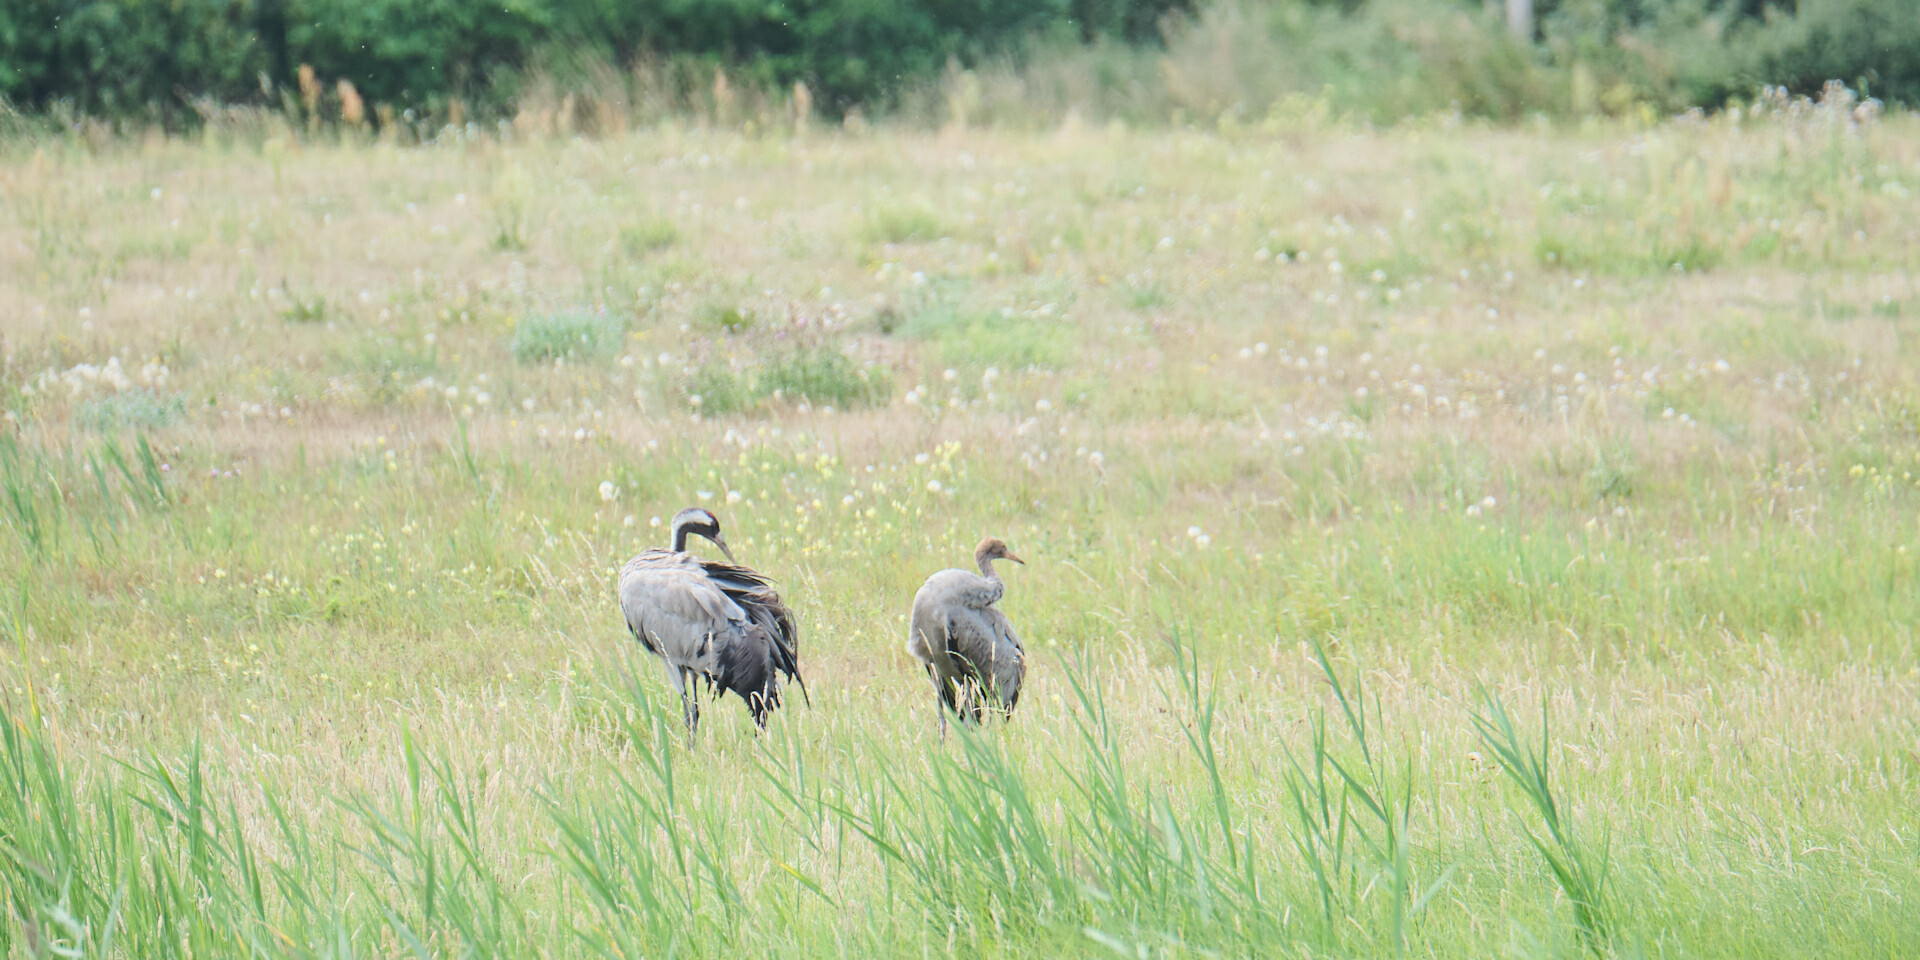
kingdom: Animalia
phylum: Chordata
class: Aves
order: Gruiformes
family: Gruidae
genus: Grus
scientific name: Grus grus
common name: Common crane
